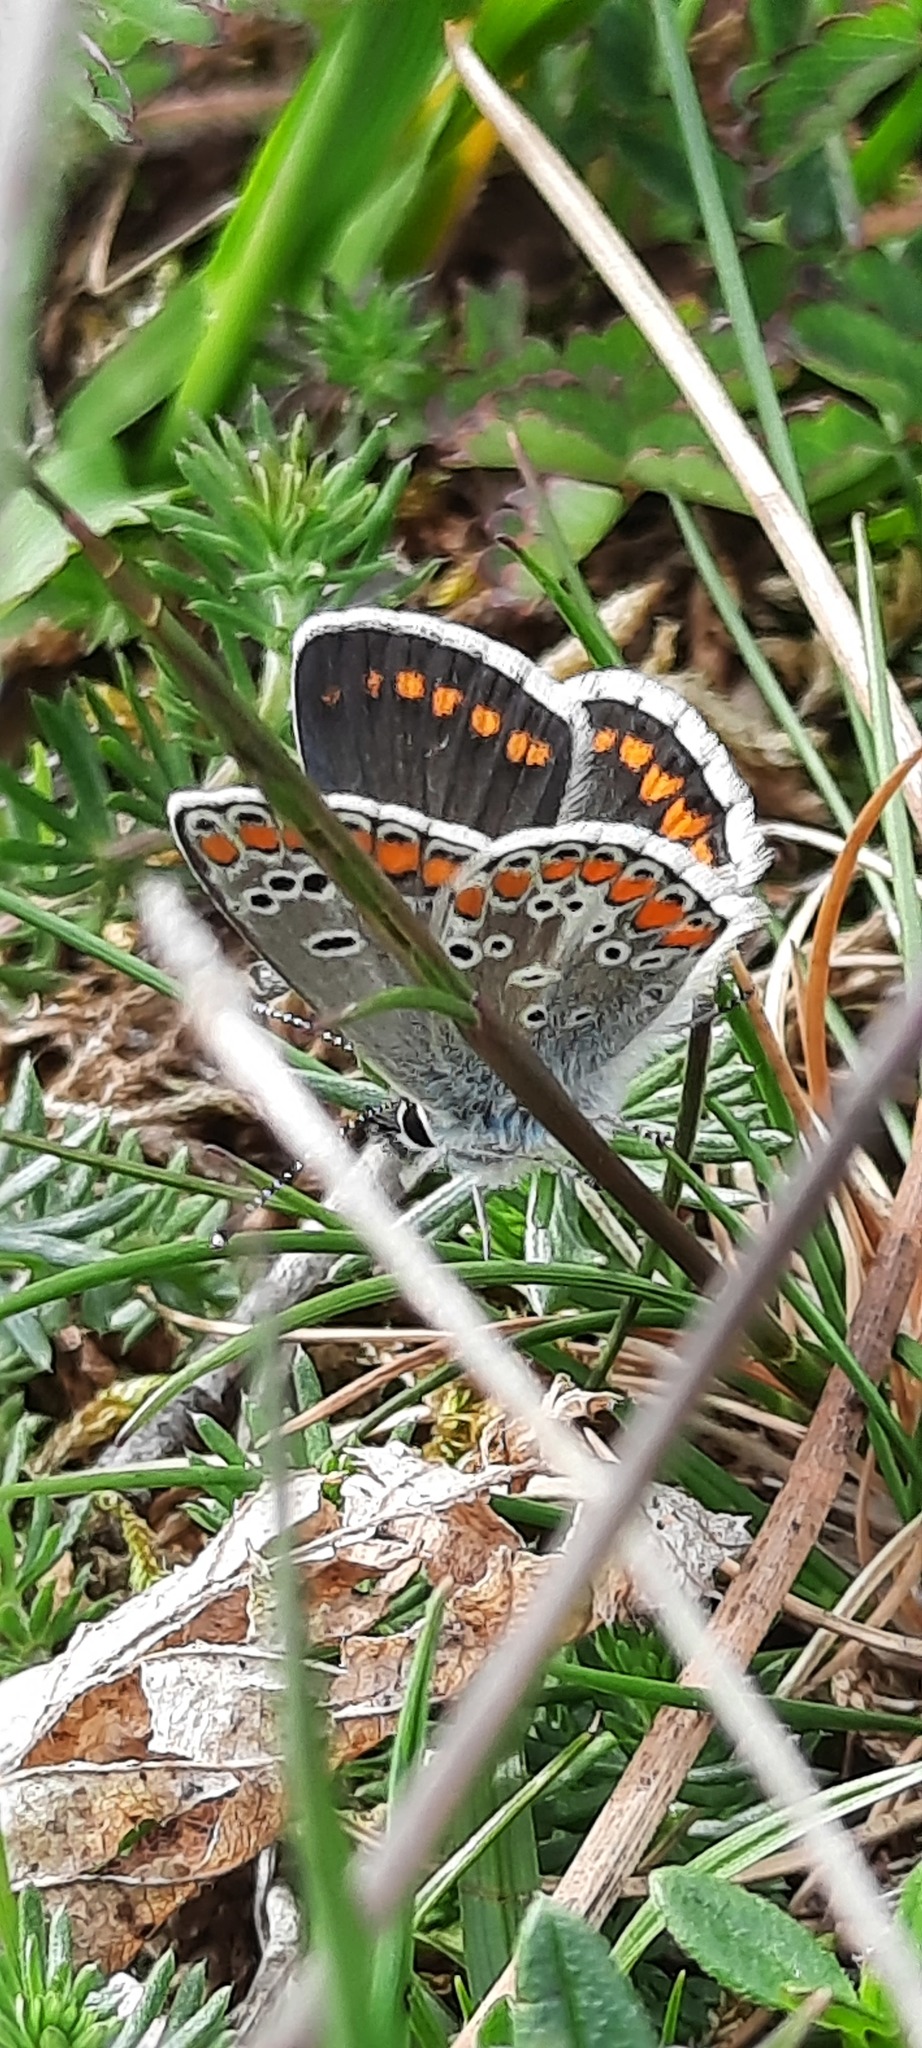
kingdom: Animalia
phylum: Arthropoda
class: Insecta
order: Lepidoptera
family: Lycaenidae
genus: Aricia
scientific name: Aricia agestis
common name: Brown argus
